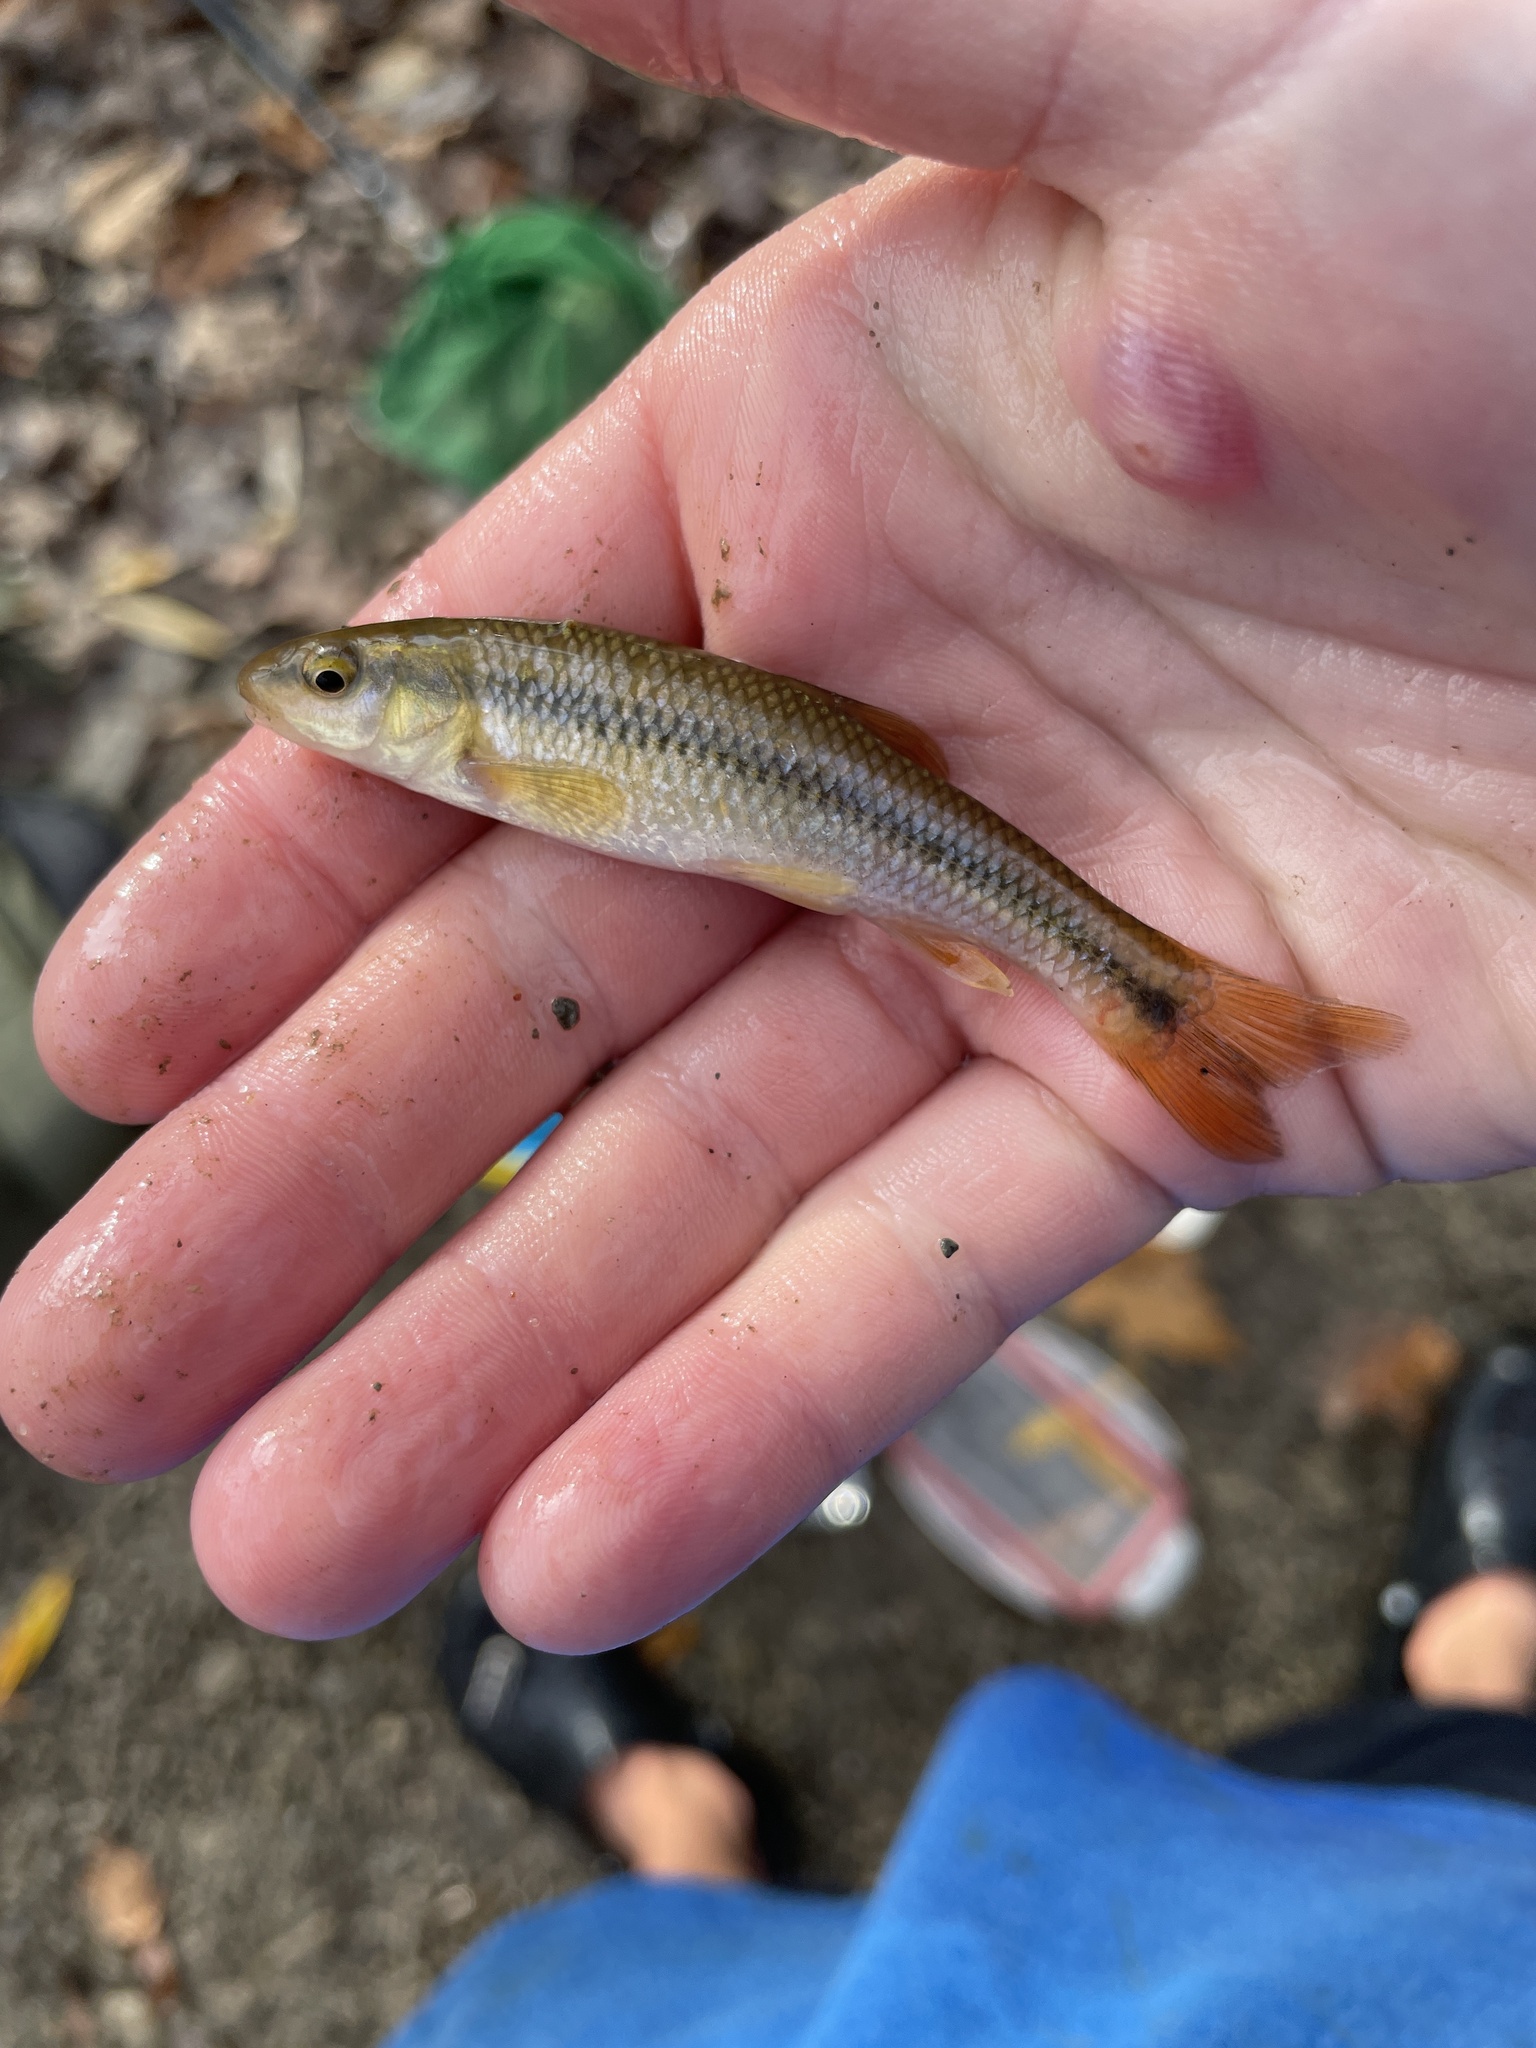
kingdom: Animalia
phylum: Chordata
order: Cypriniformes
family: Cyprinidae
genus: Nocomis
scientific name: Nocomis biguttatus
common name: Hornyhead chub
